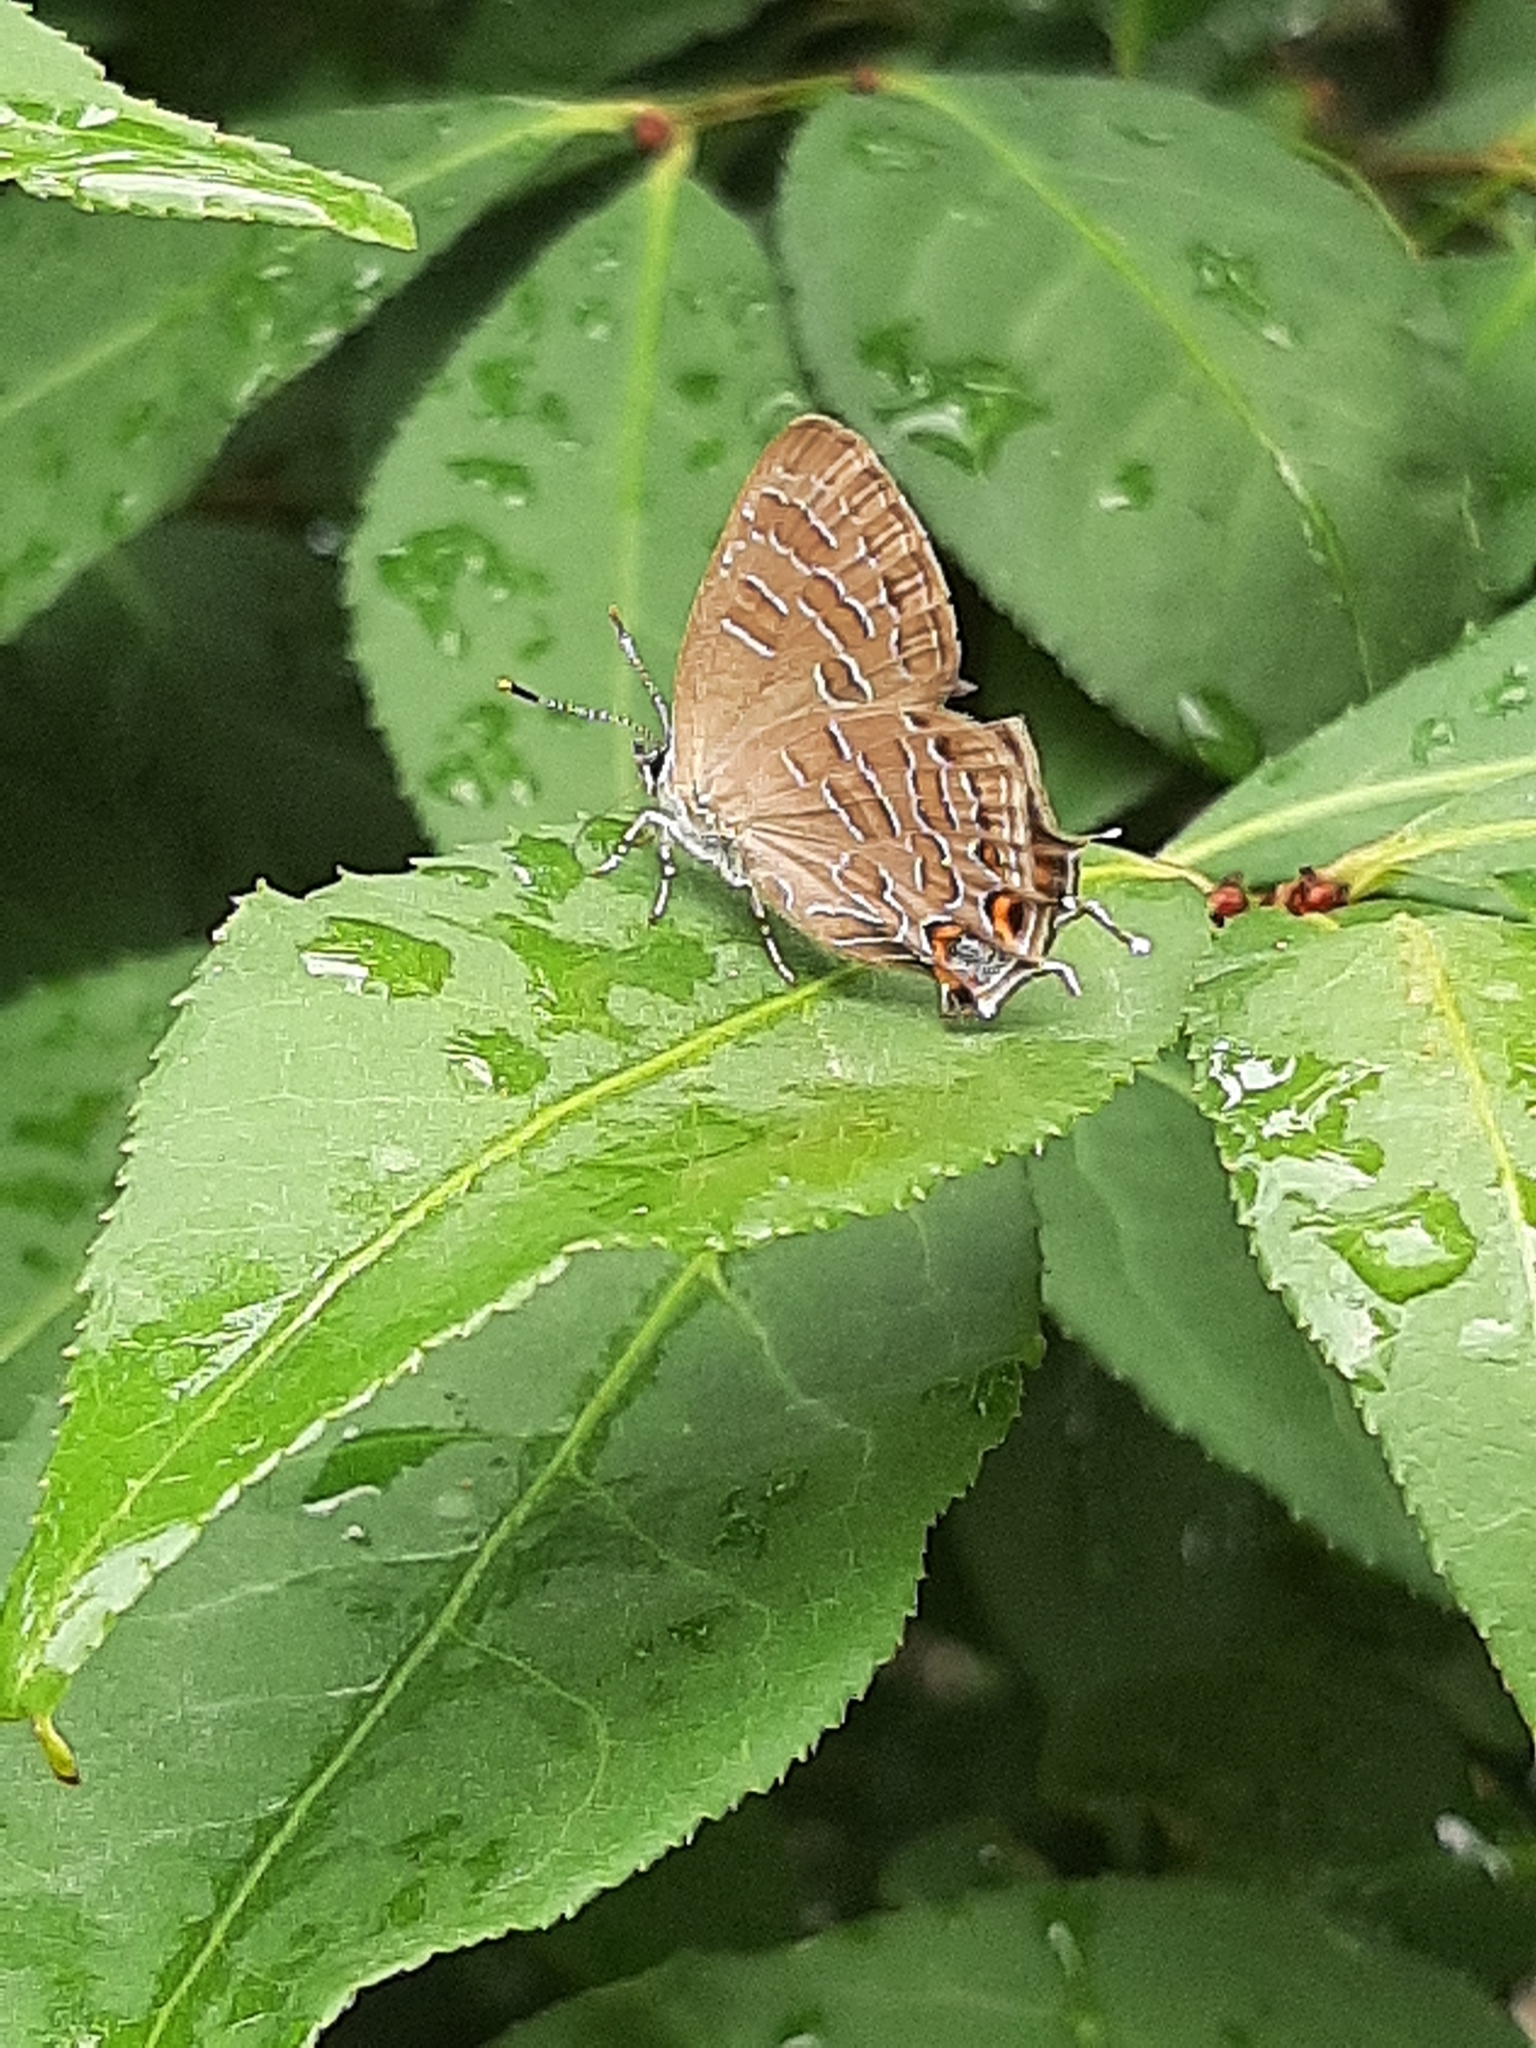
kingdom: Animalia
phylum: Arthropoda
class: Insecta
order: Lepidoptera
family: Lycaenidae
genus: Satyrium
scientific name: Satyrium liparops
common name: Striped hairstreak
